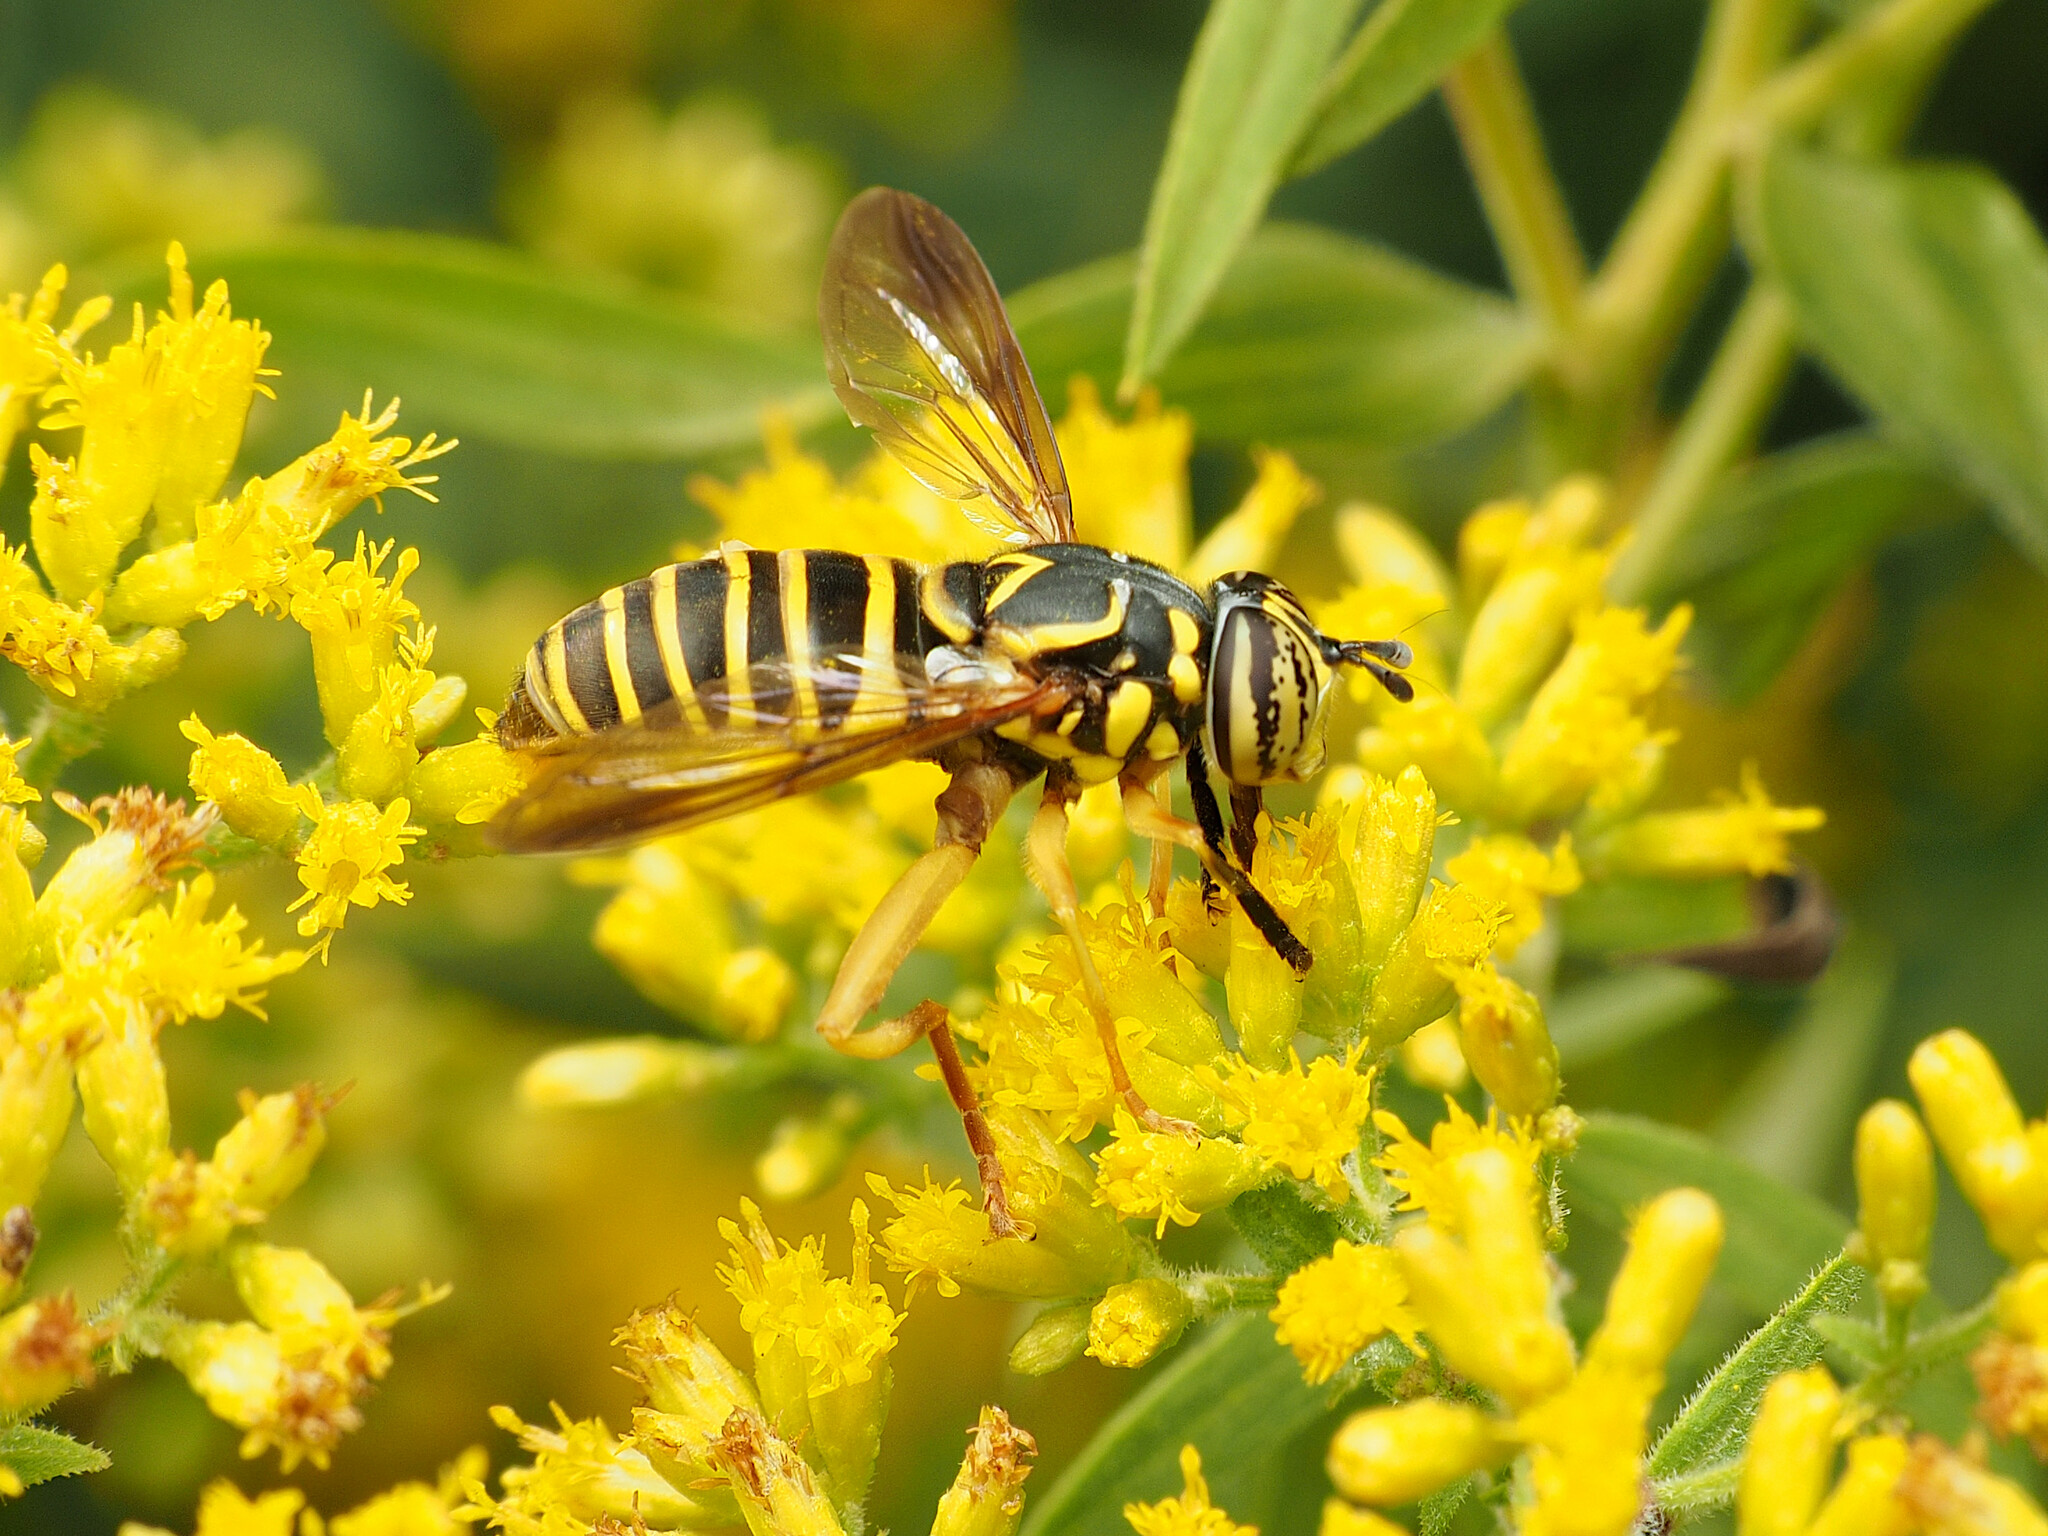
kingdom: Animalia
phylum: Arthropoda
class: Insecta
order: Diptera
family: Syrphidae
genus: Spilomyia
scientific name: Spilomyia longicornis
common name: Eastern hornet fly
